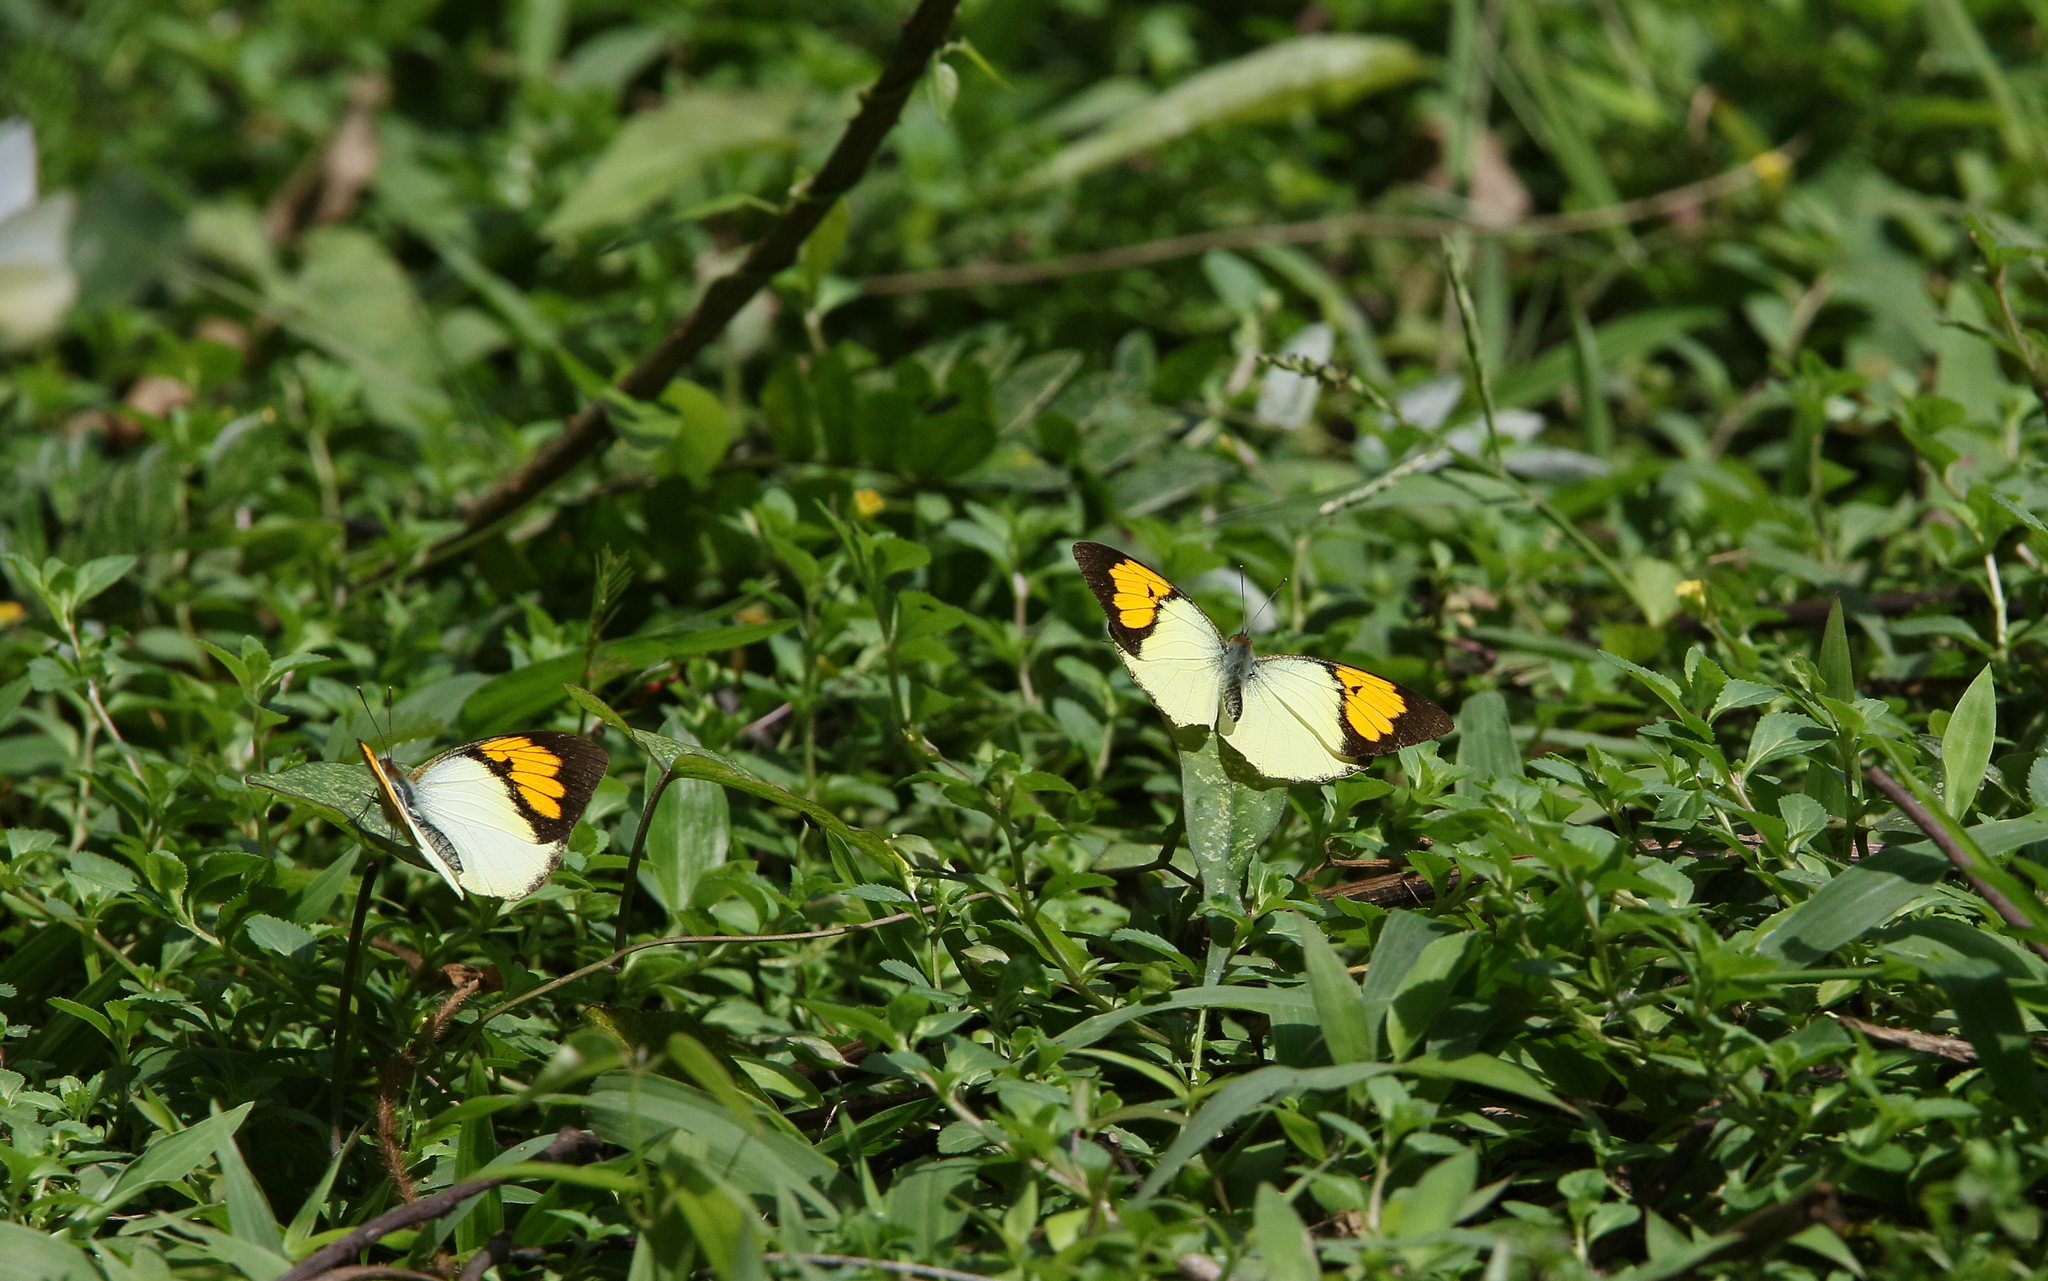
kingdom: Animalia
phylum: Arthropoda
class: Insecta
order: Lepidoptera
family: Pieridae
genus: Ixias
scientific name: Ixias pyrene
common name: Yellow orange tip
